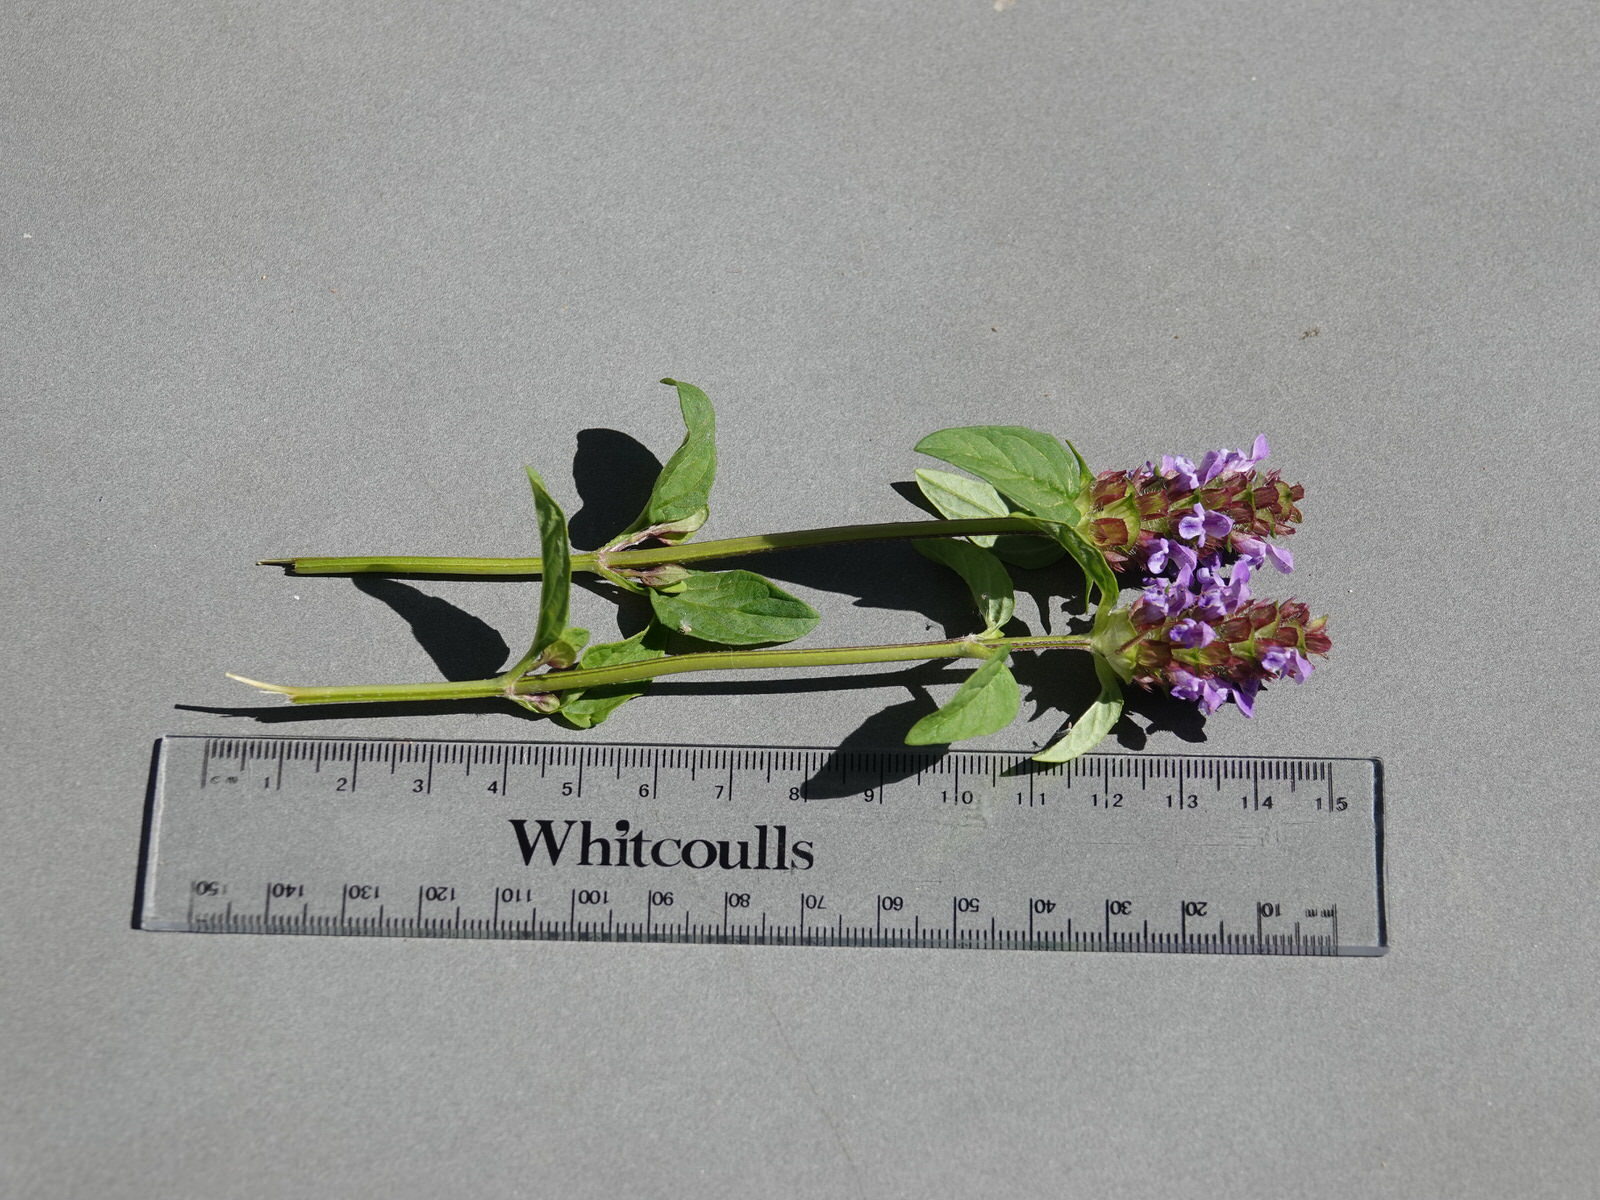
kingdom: Plantae
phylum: Tracheophyta
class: Magnoliopsida
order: Lamiales
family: Lamiaceae
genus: Prunella
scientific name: Prunella vulgaris
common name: Heal-all
